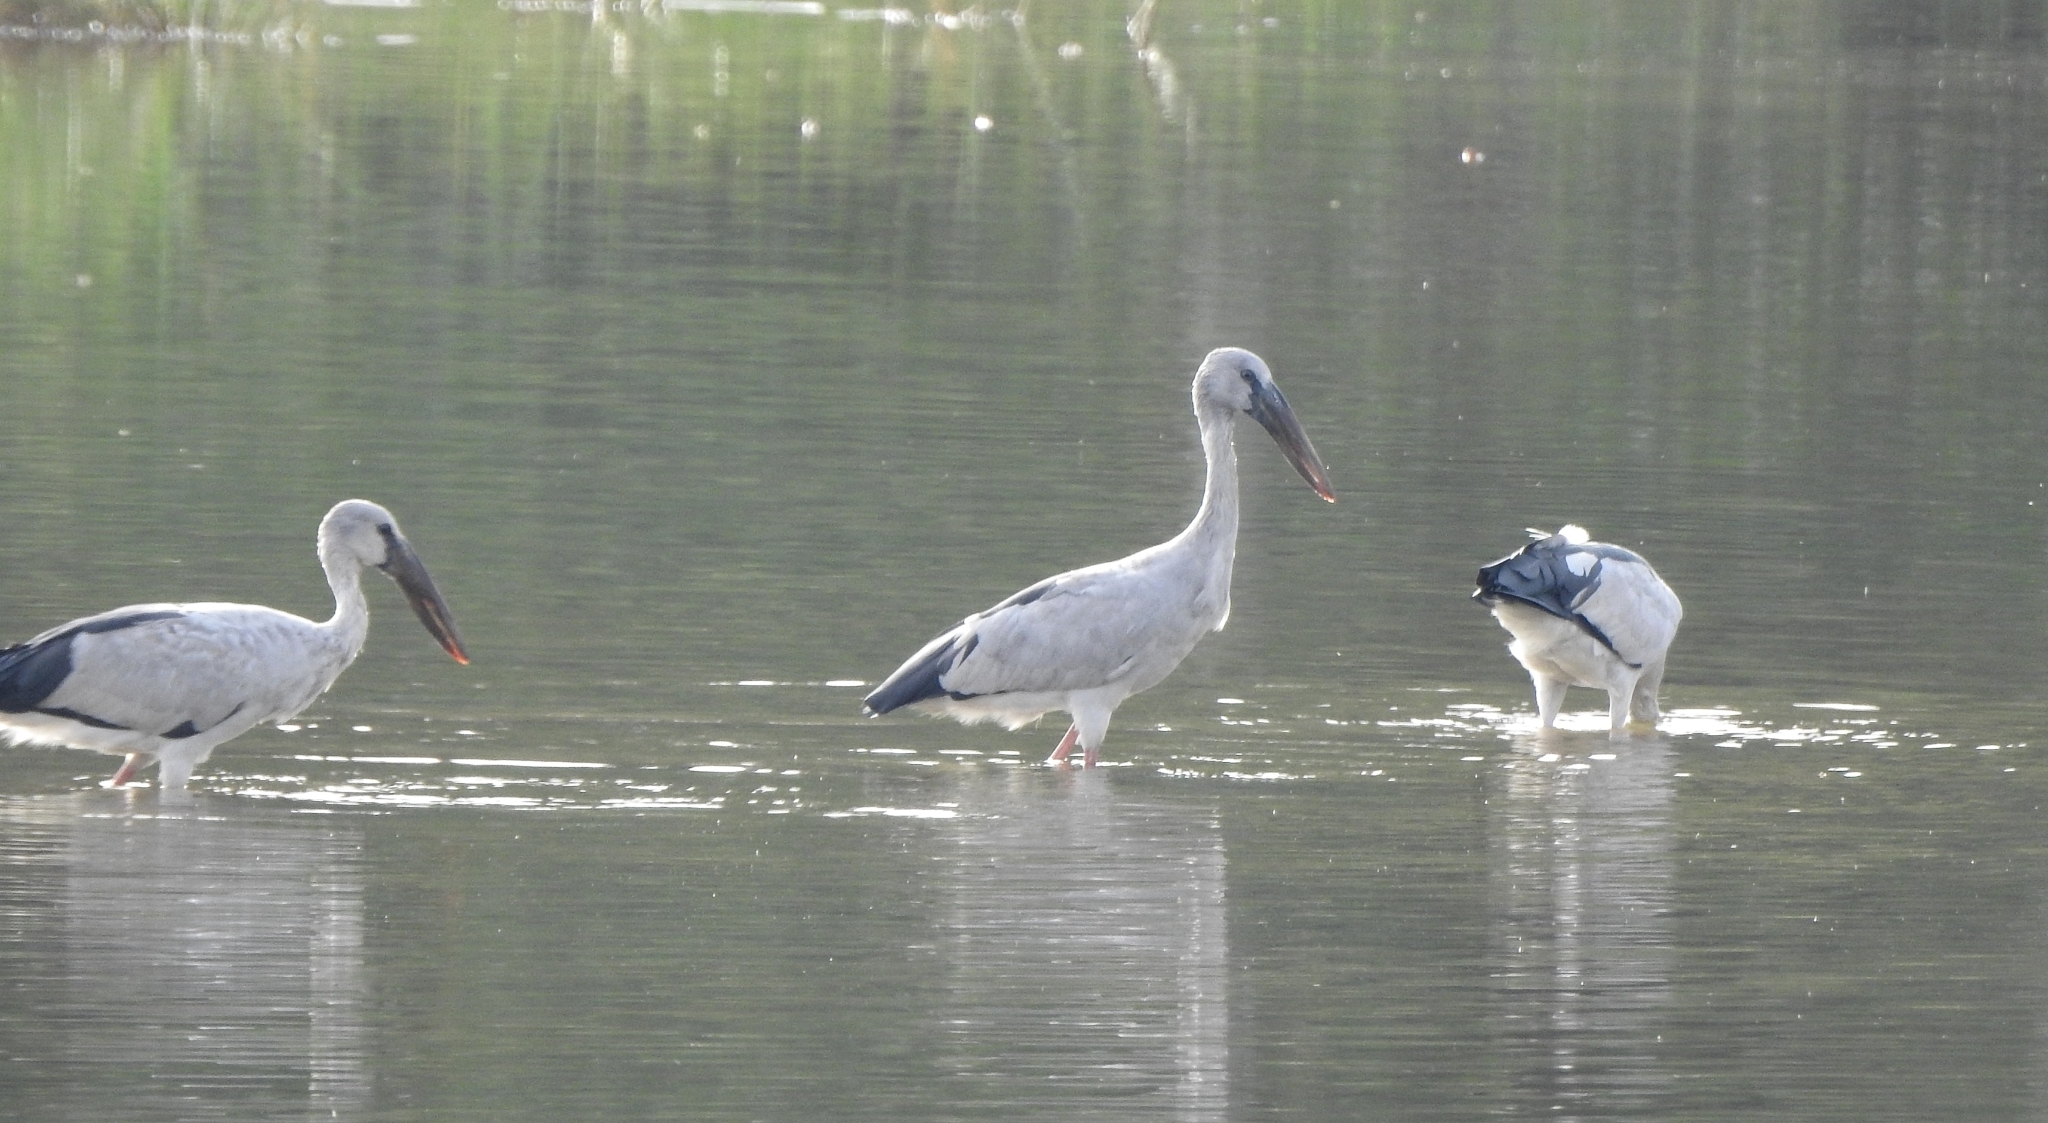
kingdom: Animalia
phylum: Chordata
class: Aves
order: Ciconiiformes
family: Ciconiidae
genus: Anastomus
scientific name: Anastomus oscitans
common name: Asian openbill
